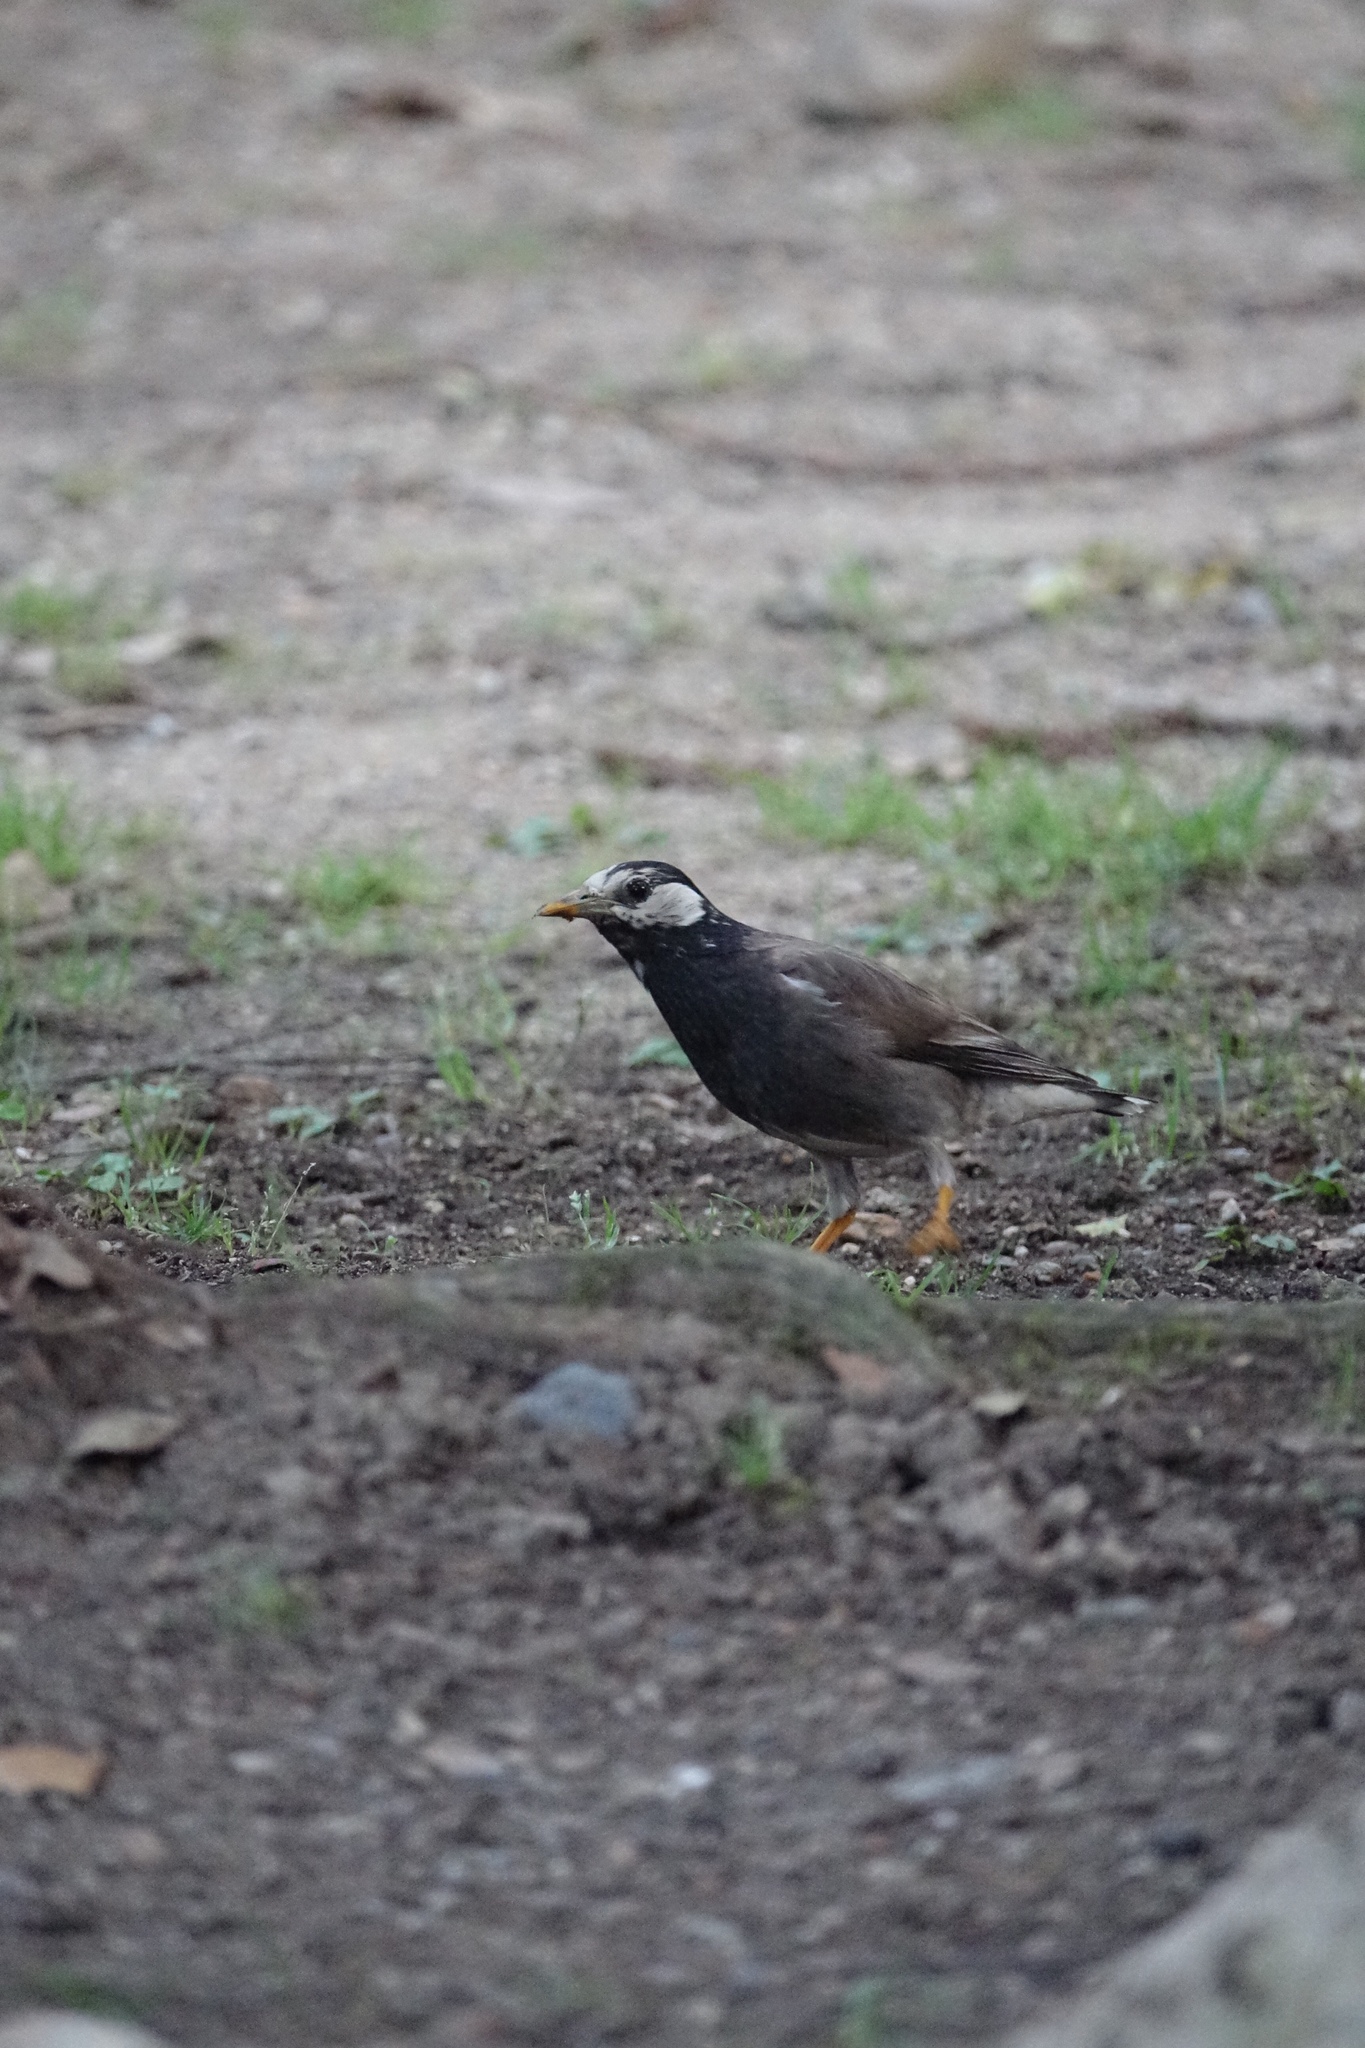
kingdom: Animalia
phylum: Chordata
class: Aves
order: Passeriformes
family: Sturnidae
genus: Spodiopsar
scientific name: Spodiopsar cineraceus
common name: White-cheeked starling
